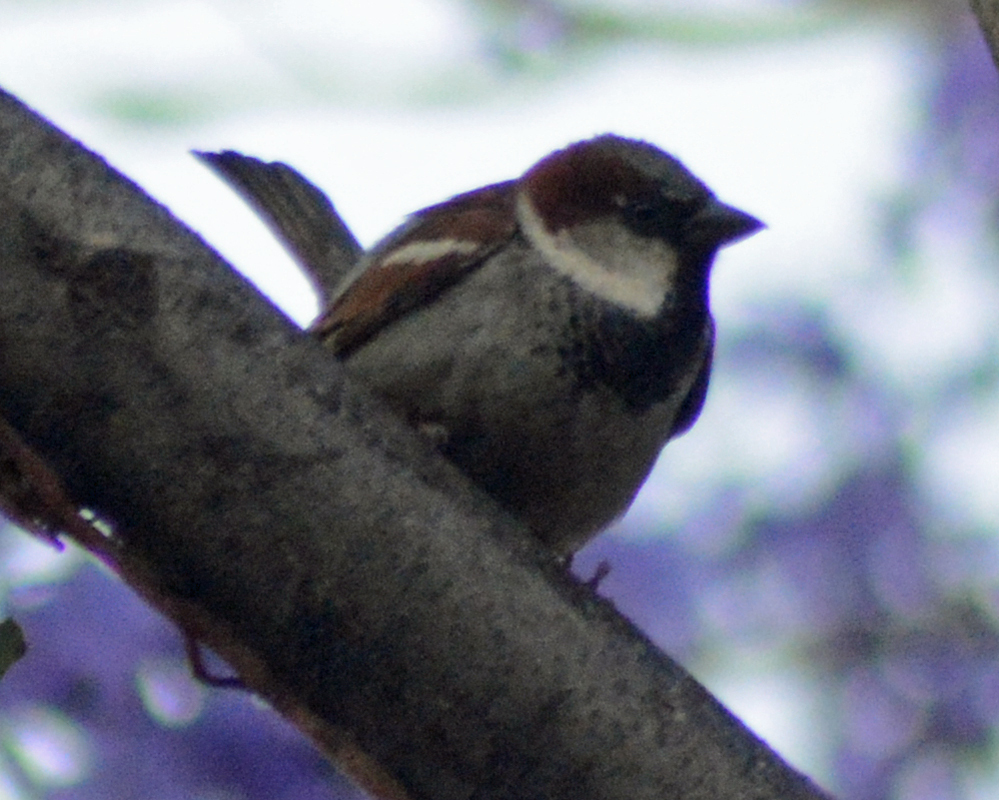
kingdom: Animalia
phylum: Chordata
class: Aves
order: Passeriformes
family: Passeridae
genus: Passer
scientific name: Passer domesticus
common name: House sparrow
